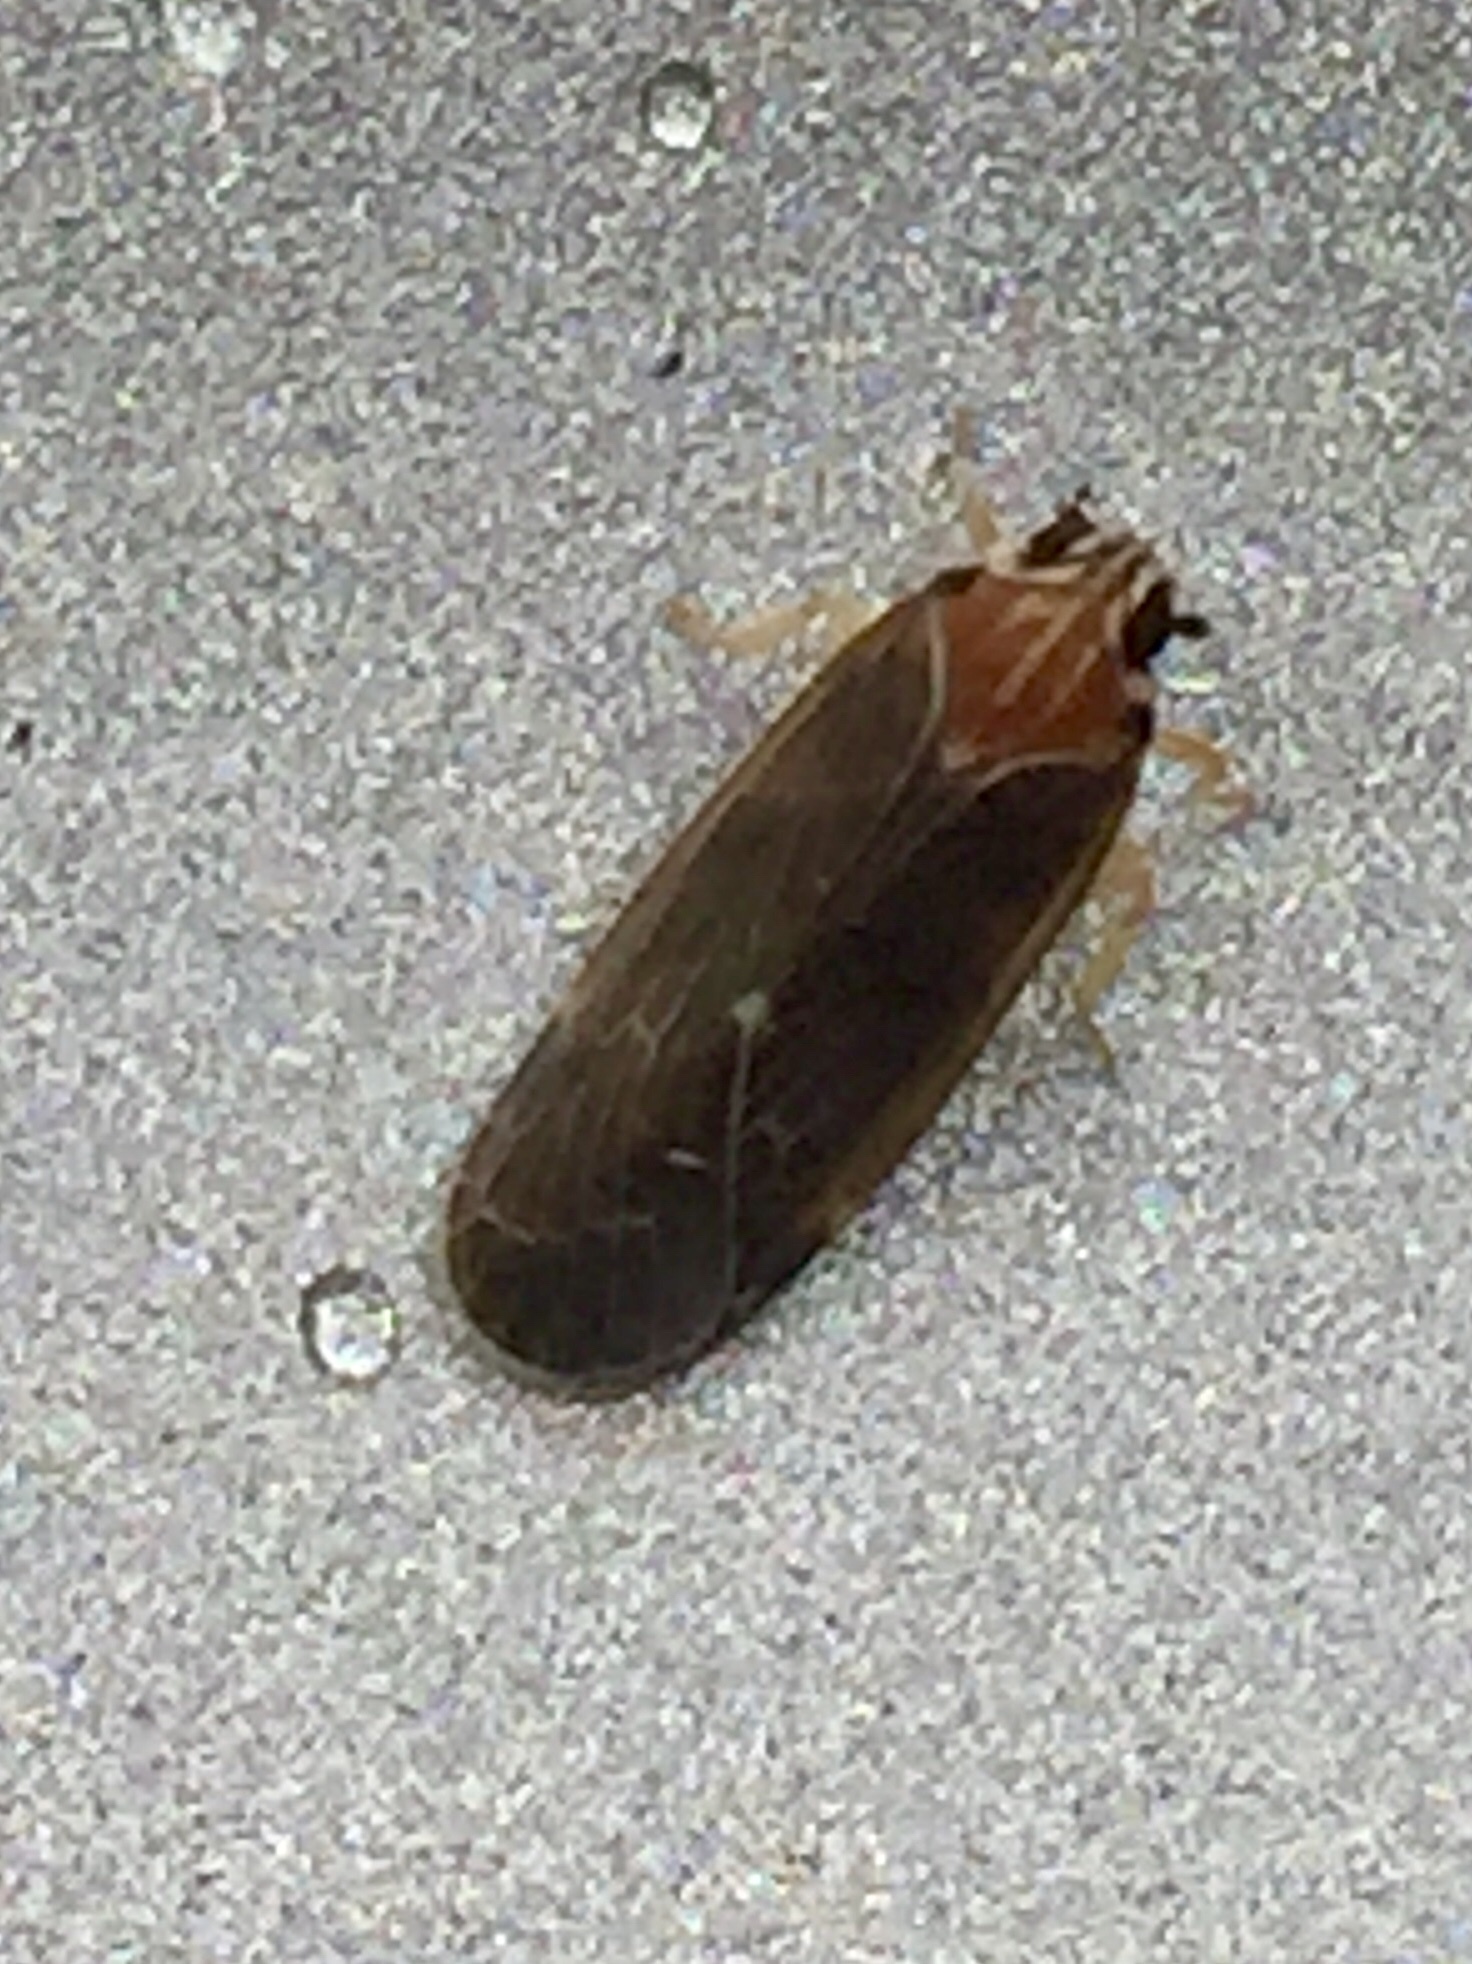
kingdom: Animalia
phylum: Arthropoda
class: Insecta
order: Hemiptera
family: Achilidae
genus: Synecdoche
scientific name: Synecdoche impunctata
